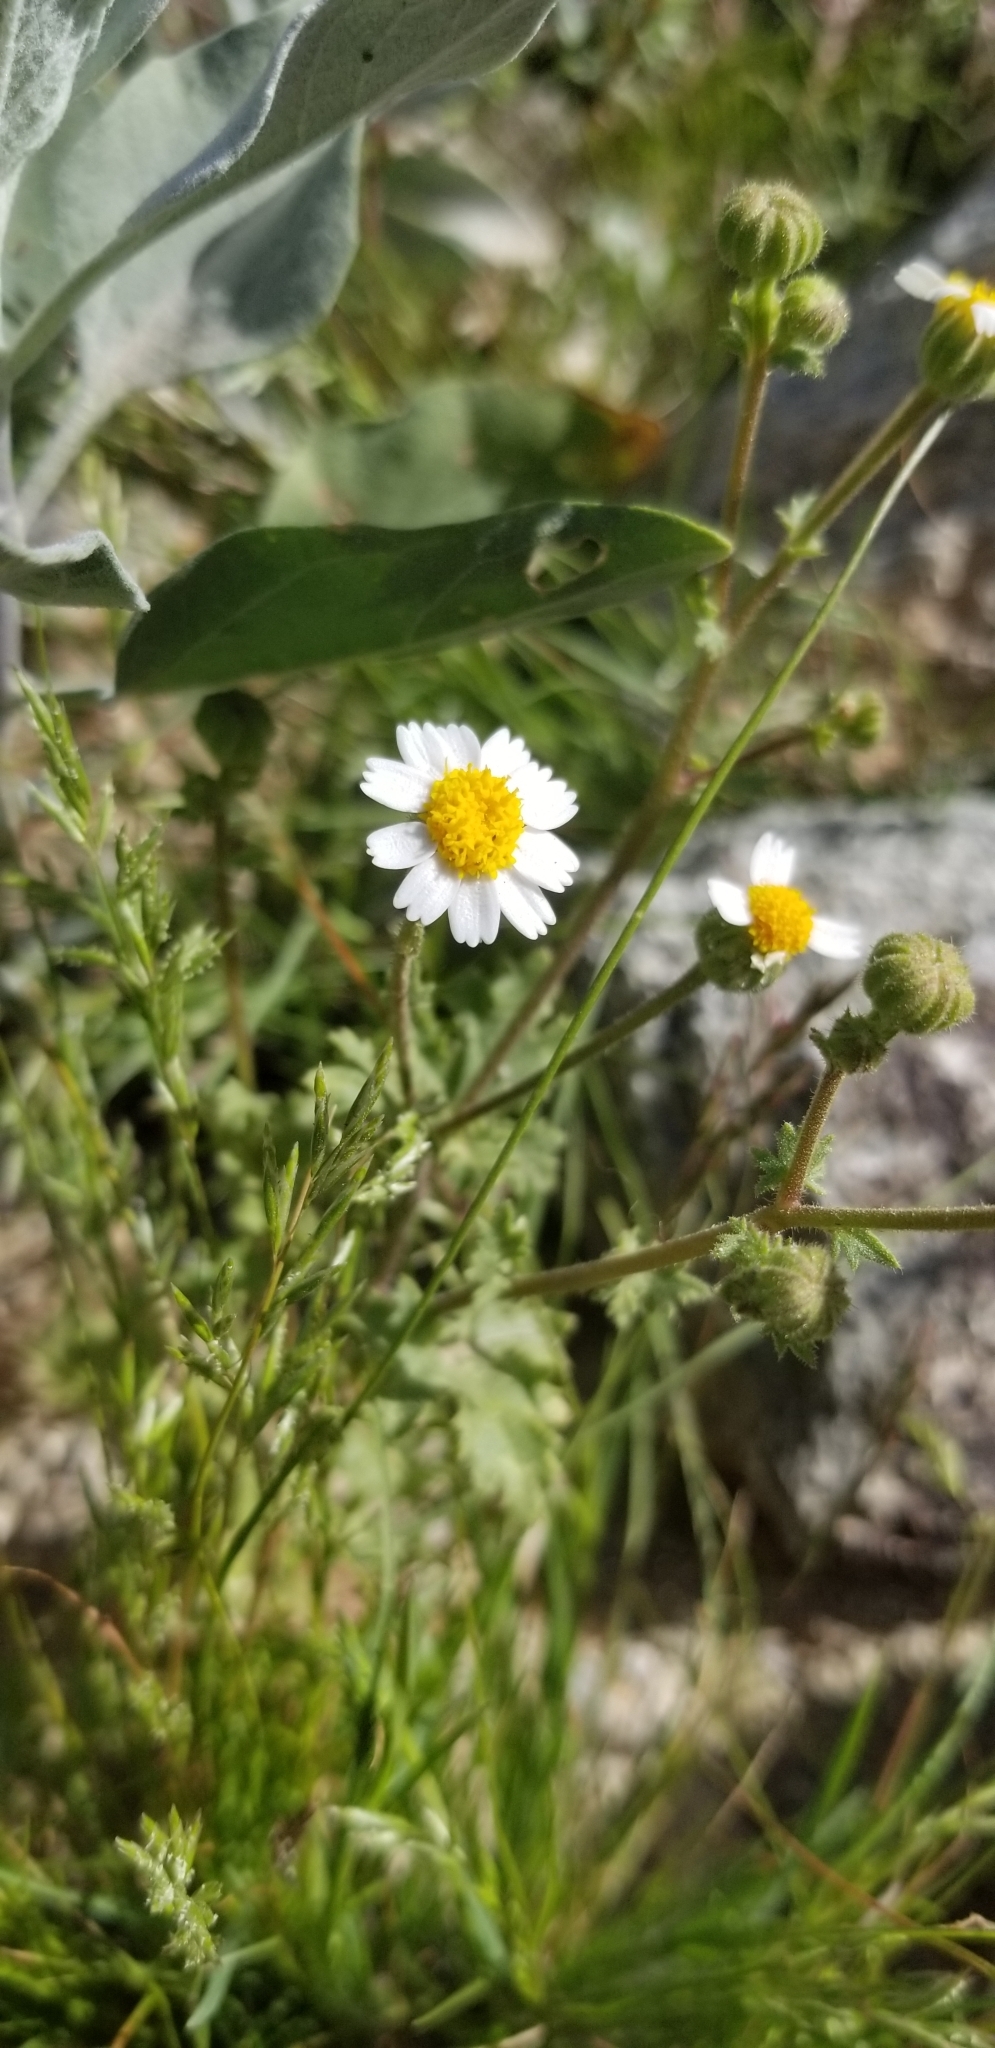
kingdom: Plantae
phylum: Tracheophyta
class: Magnoliopsida
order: Asterales
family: Asteraceae
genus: Laphamia
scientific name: Laphamia emoryi
